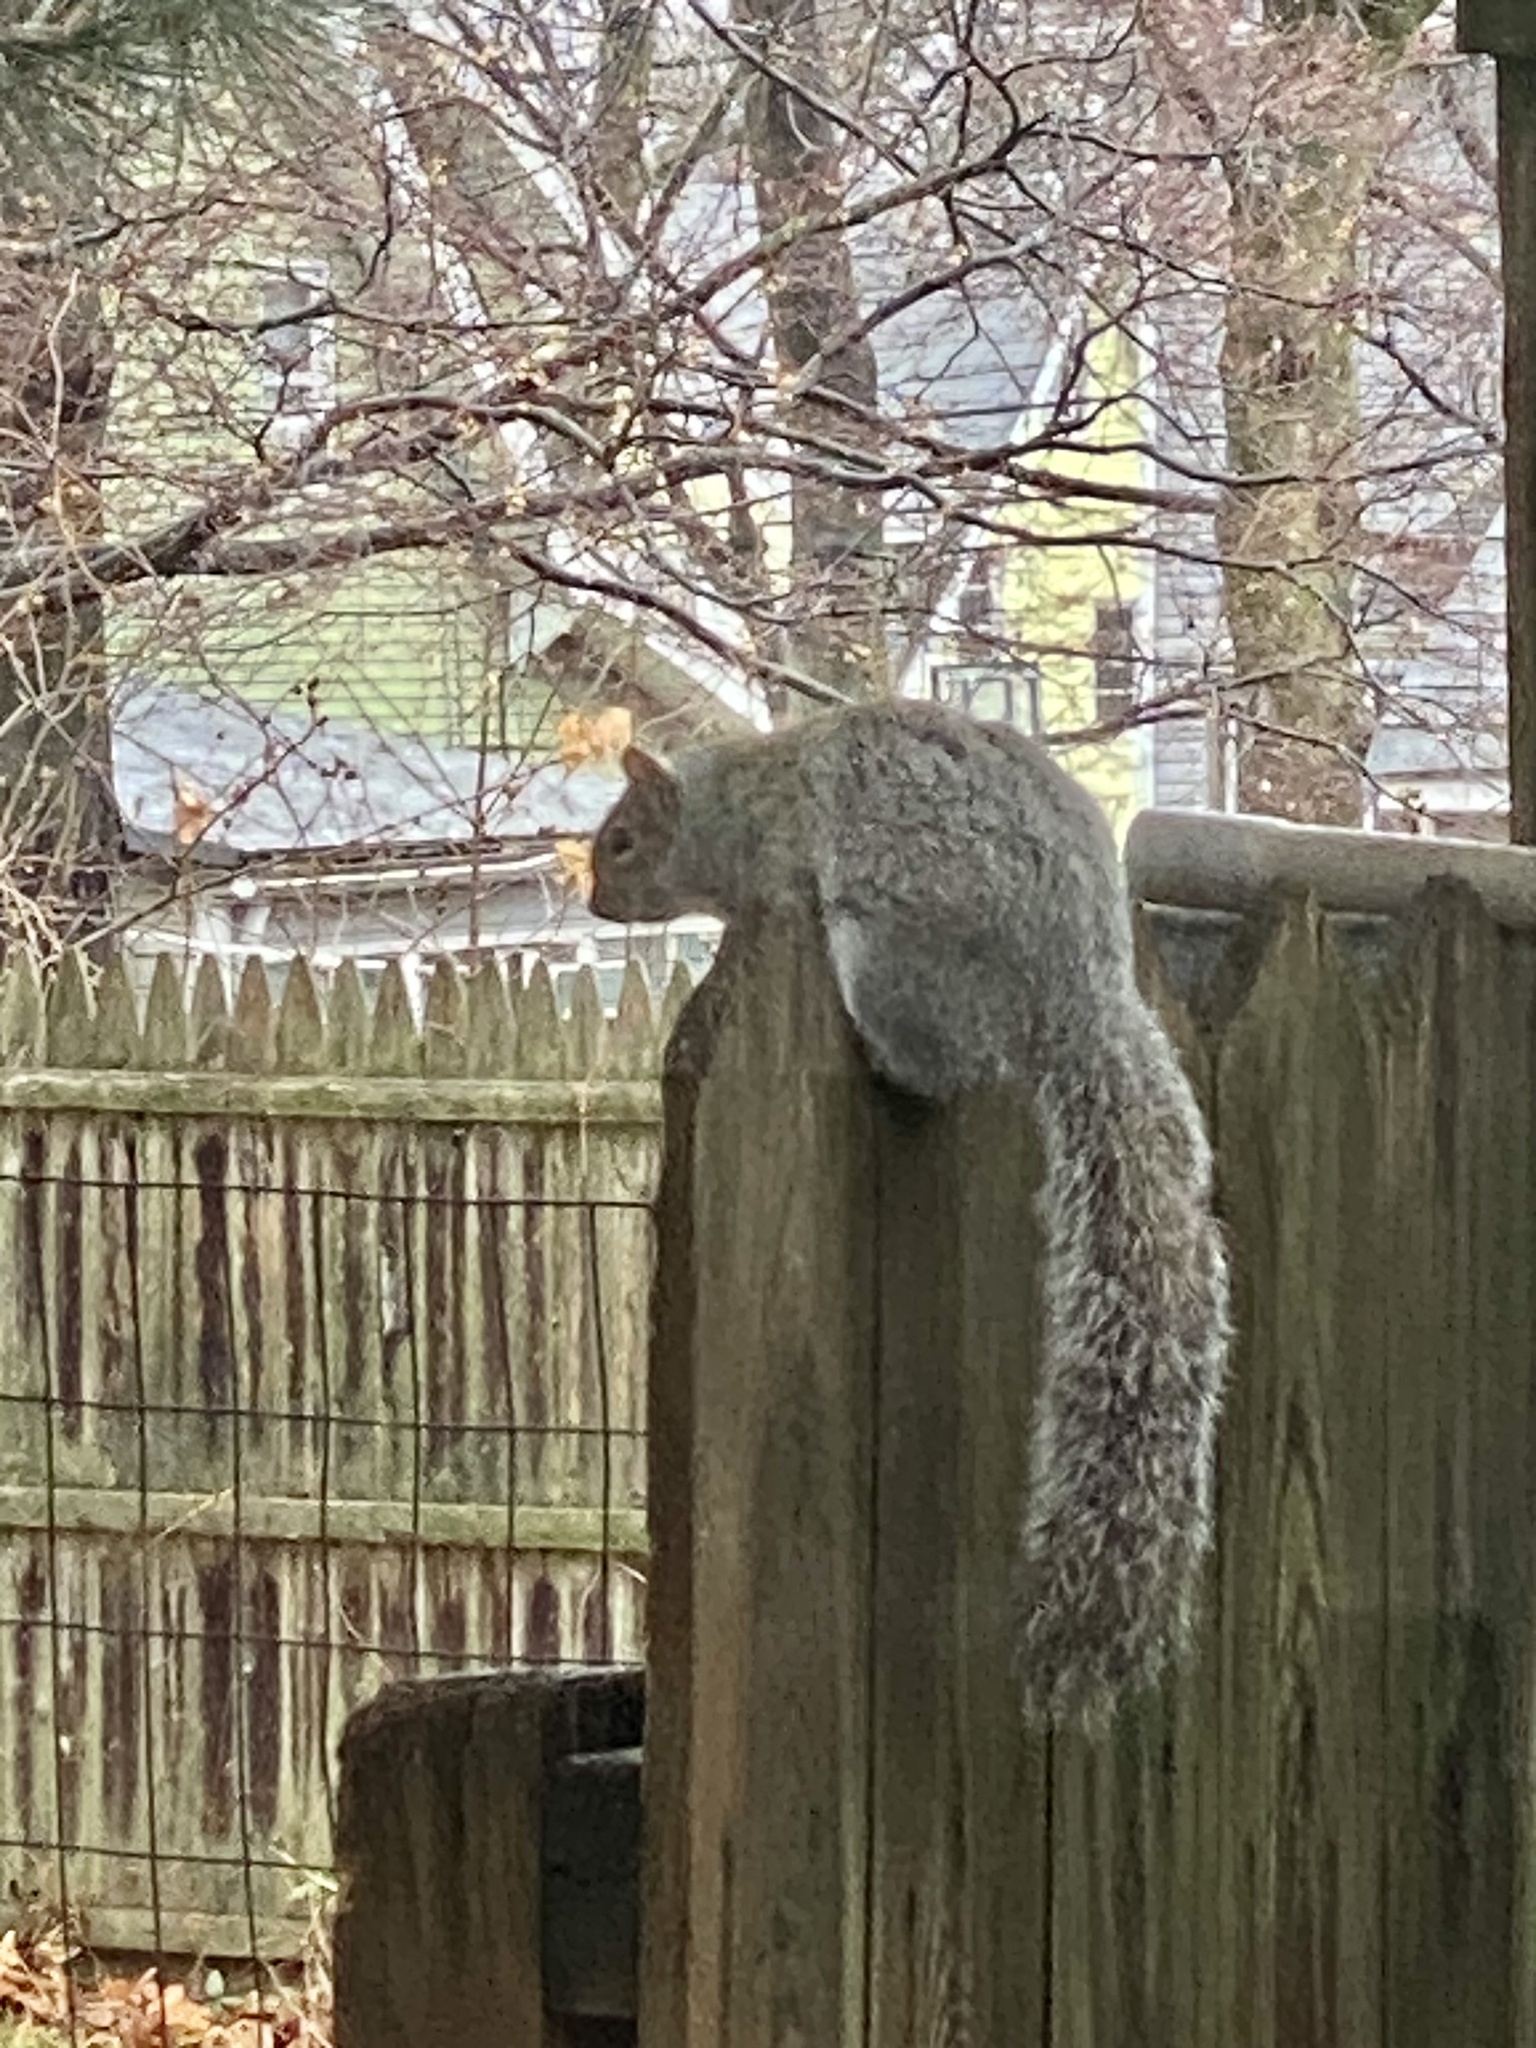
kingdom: Animalia
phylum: Chordata
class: Mammalia
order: Rodentia
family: Sciuridae
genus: Sciurus
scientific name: Sciurus carolinensis
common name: Eastern gray squirrel
